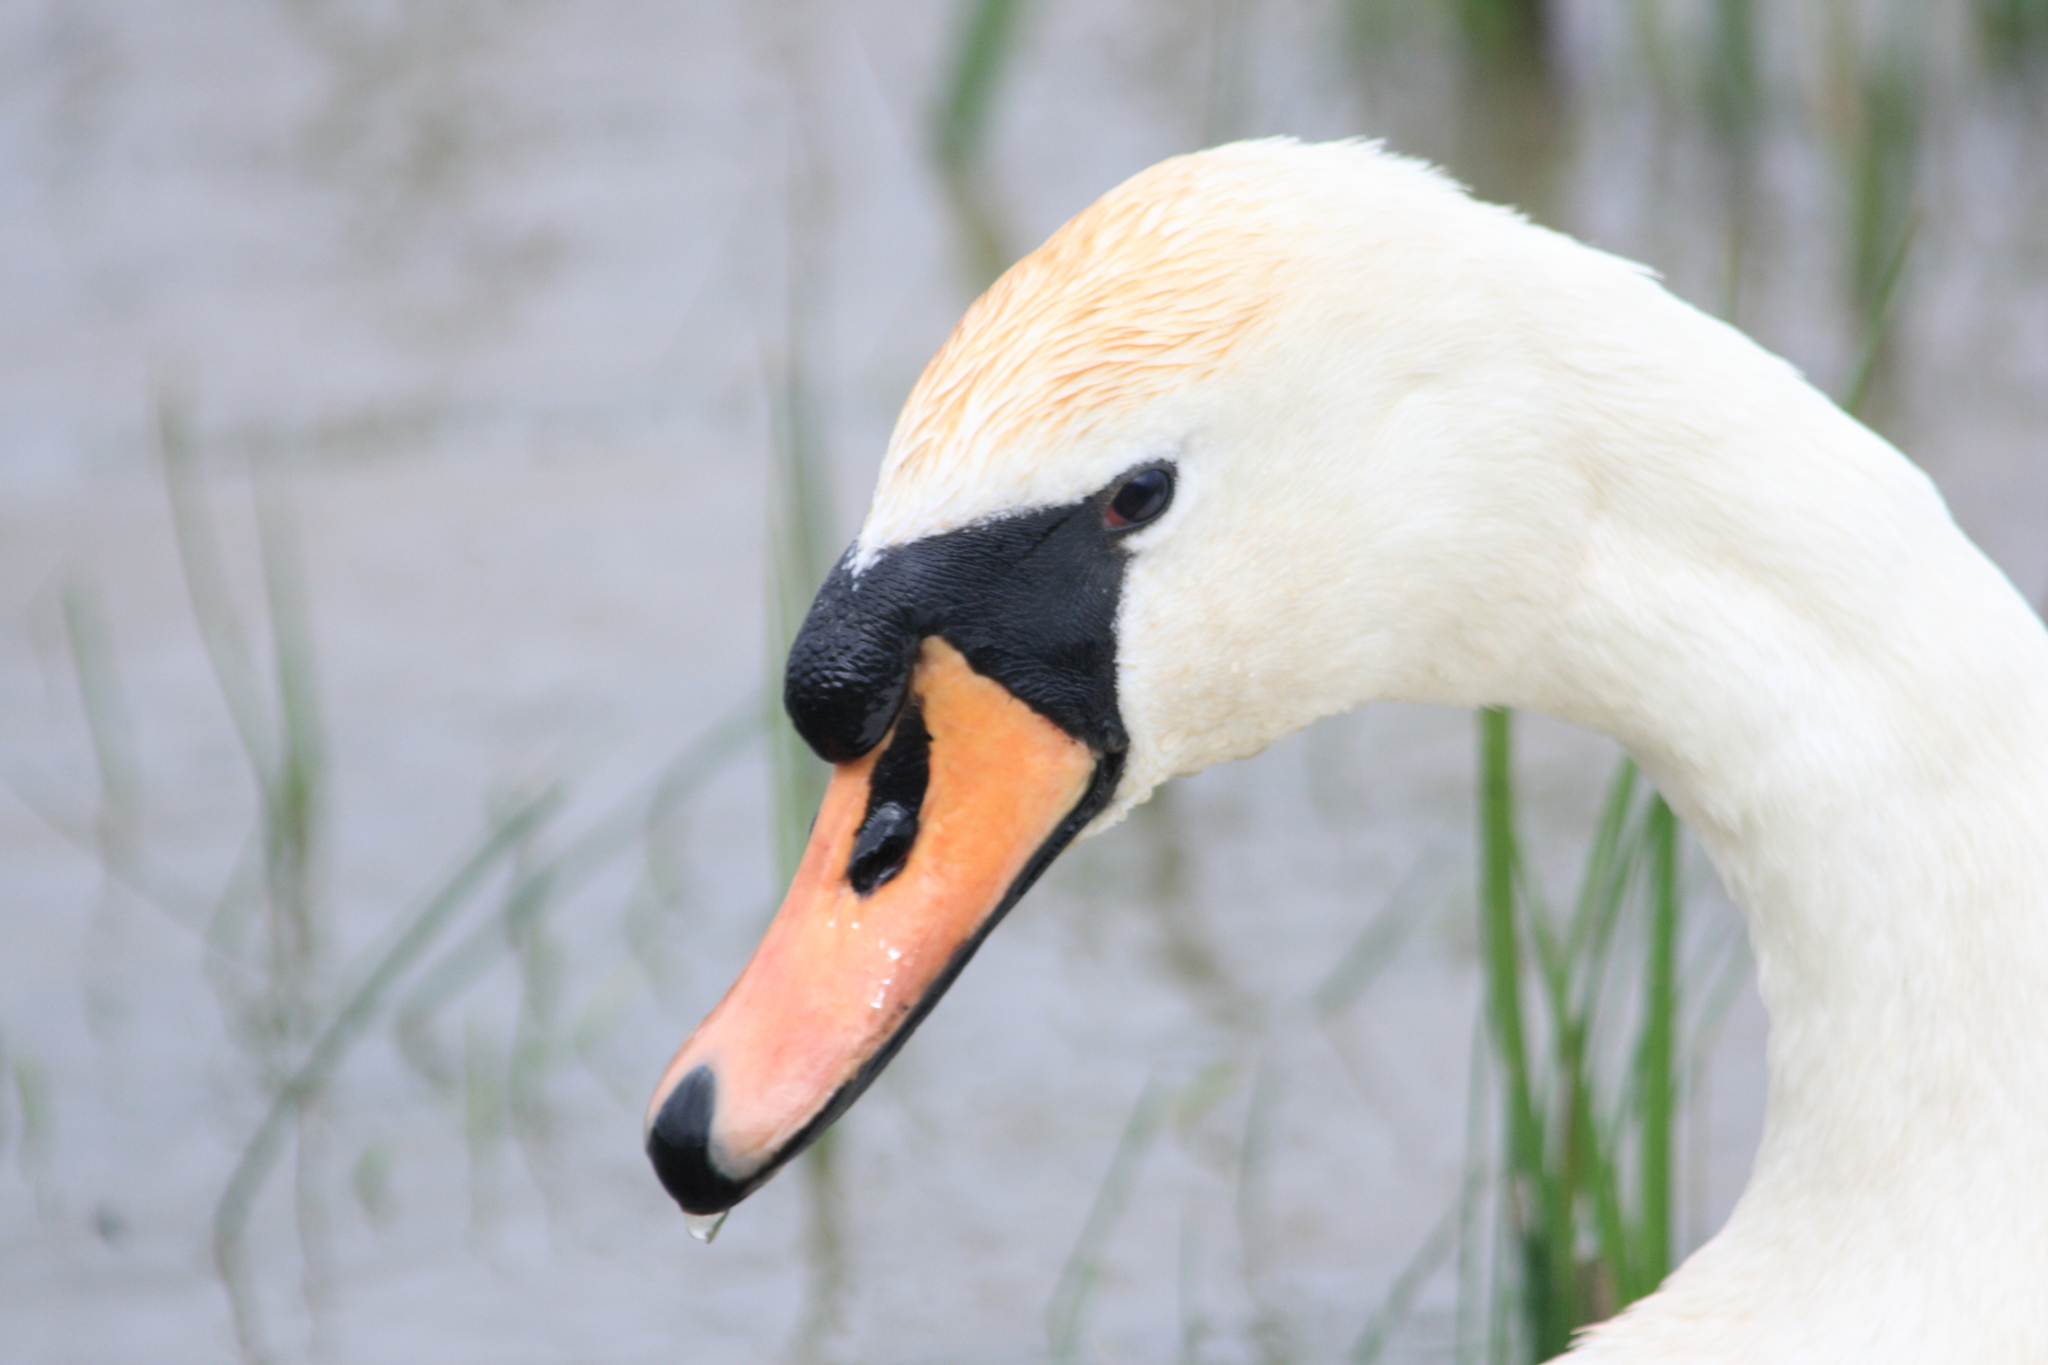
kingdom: Animalia
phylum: Chordata
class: Aves
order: Anseriformes
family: Anatidae
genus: Cygnus
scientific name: Cygnus olor
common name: Mute swan
